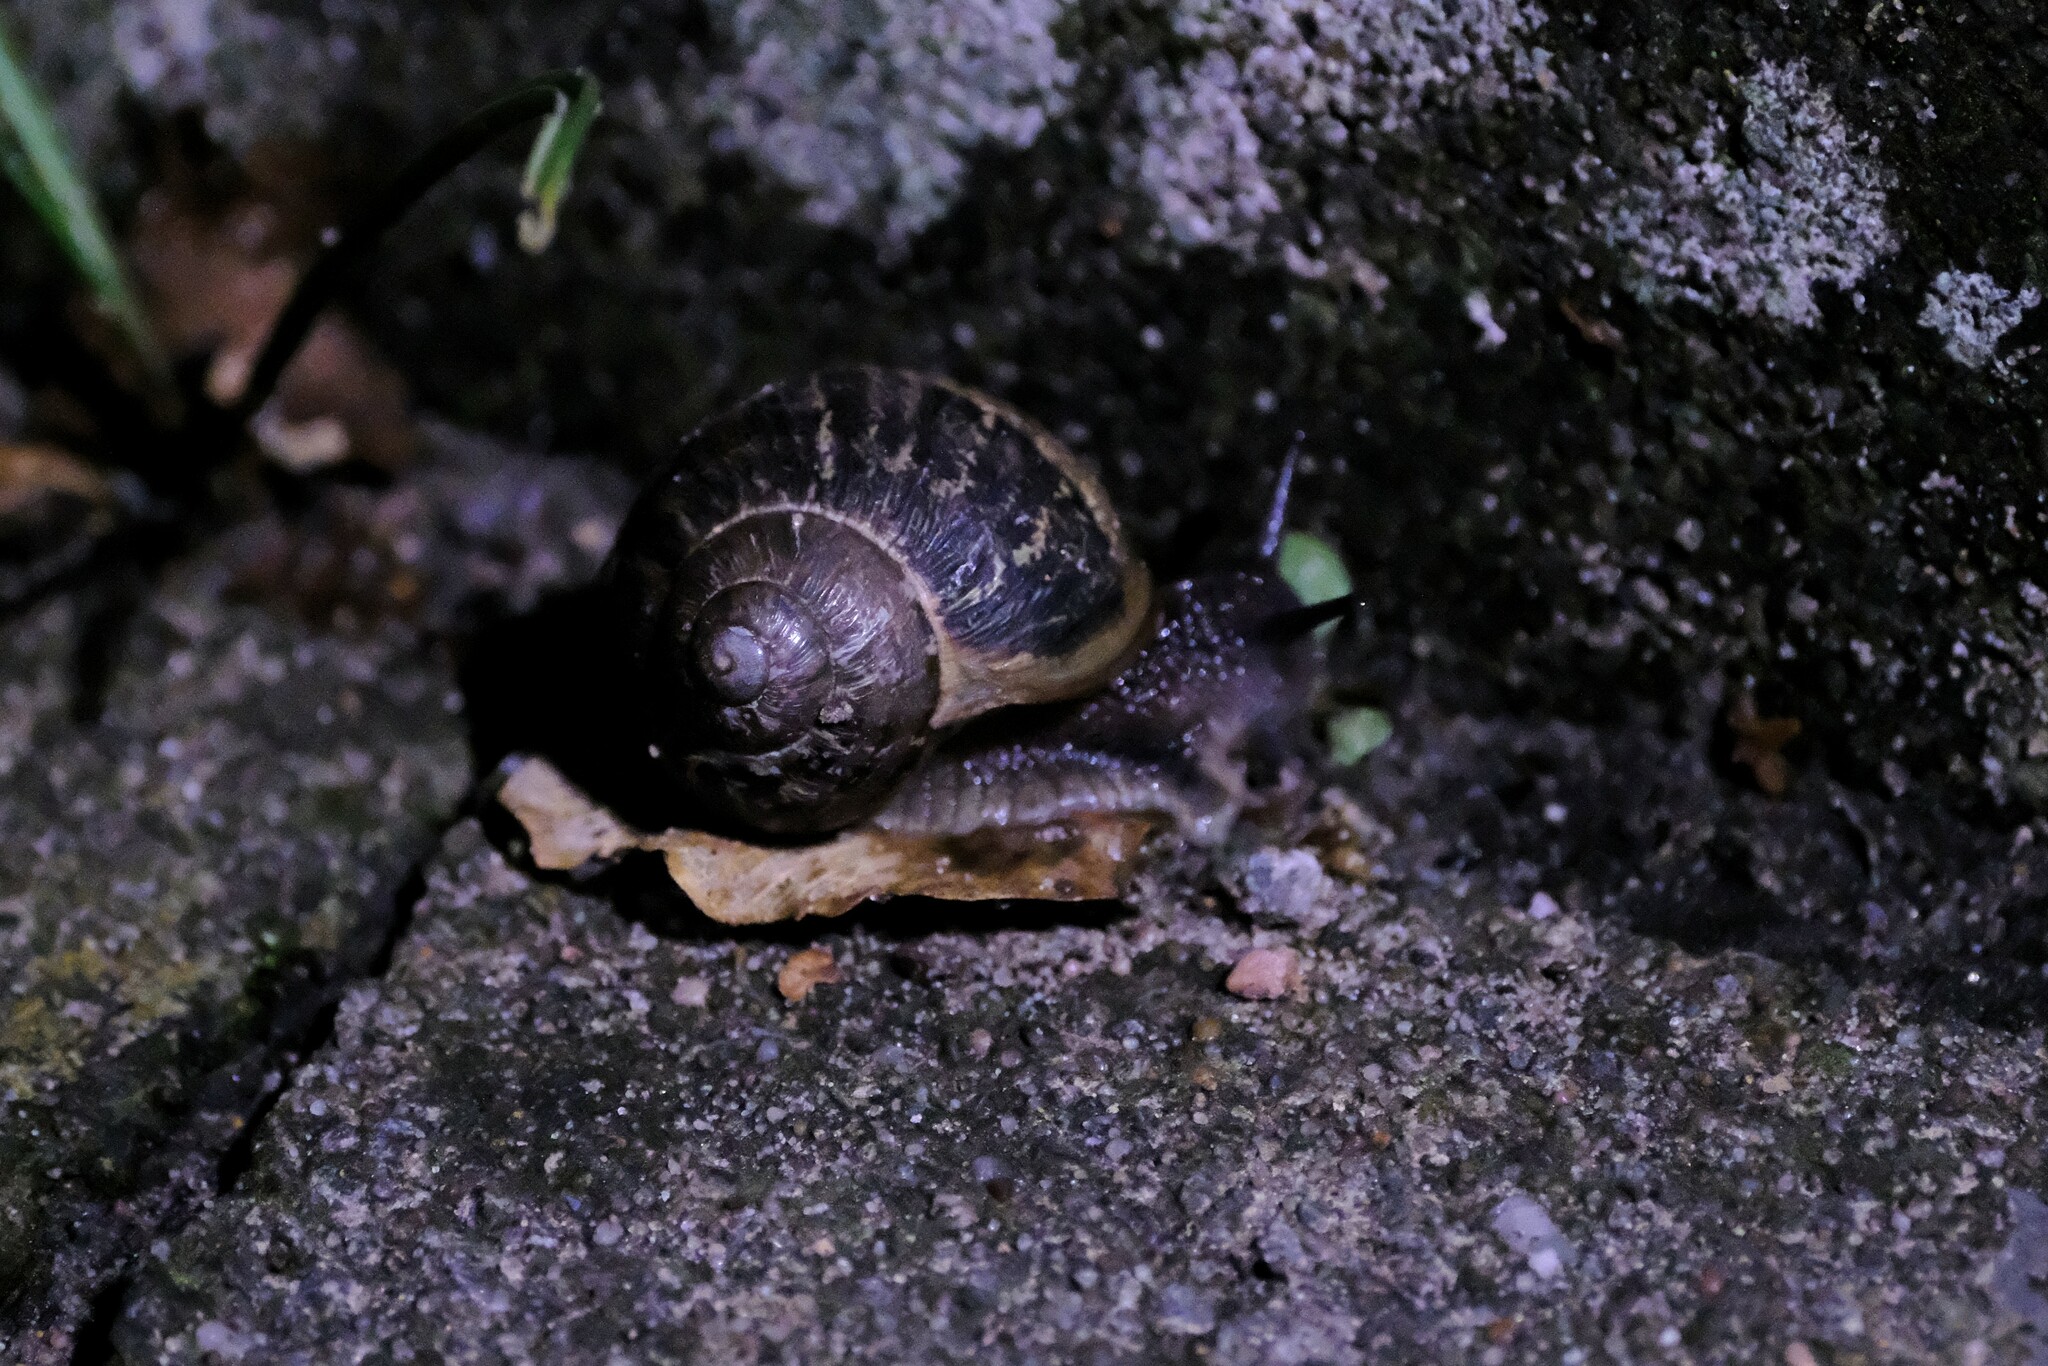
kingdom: Animalia
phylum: Mollusca
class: Gastropoda
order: Stylommatophora
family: Helicidae
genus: Cornu
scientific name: Cornu aspersum
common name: Brown garden snail
